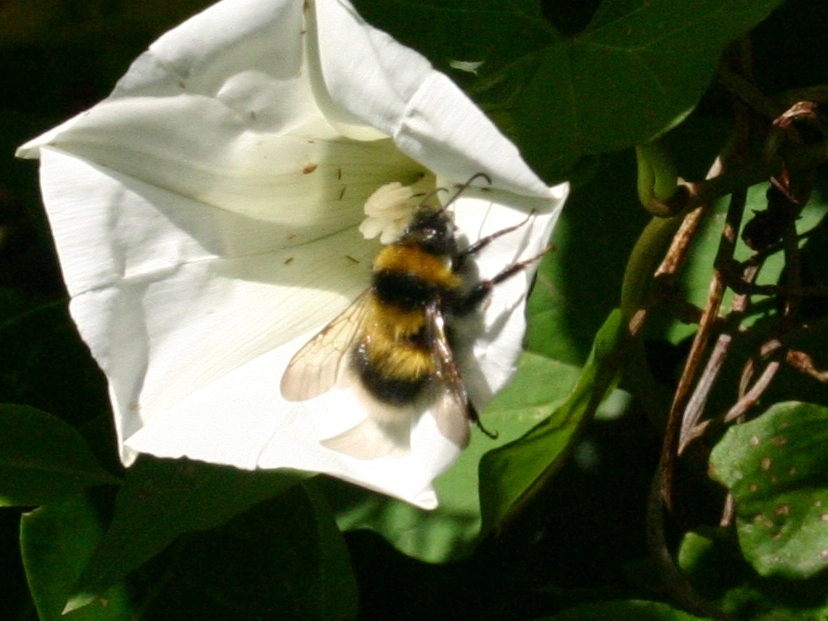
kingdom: Animalia
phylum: Arthropoda
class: Insecta
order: Hymenoptera
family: Apidae
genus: Bombus
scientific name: Bombus ruderatus
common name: Large garden bumblebee
